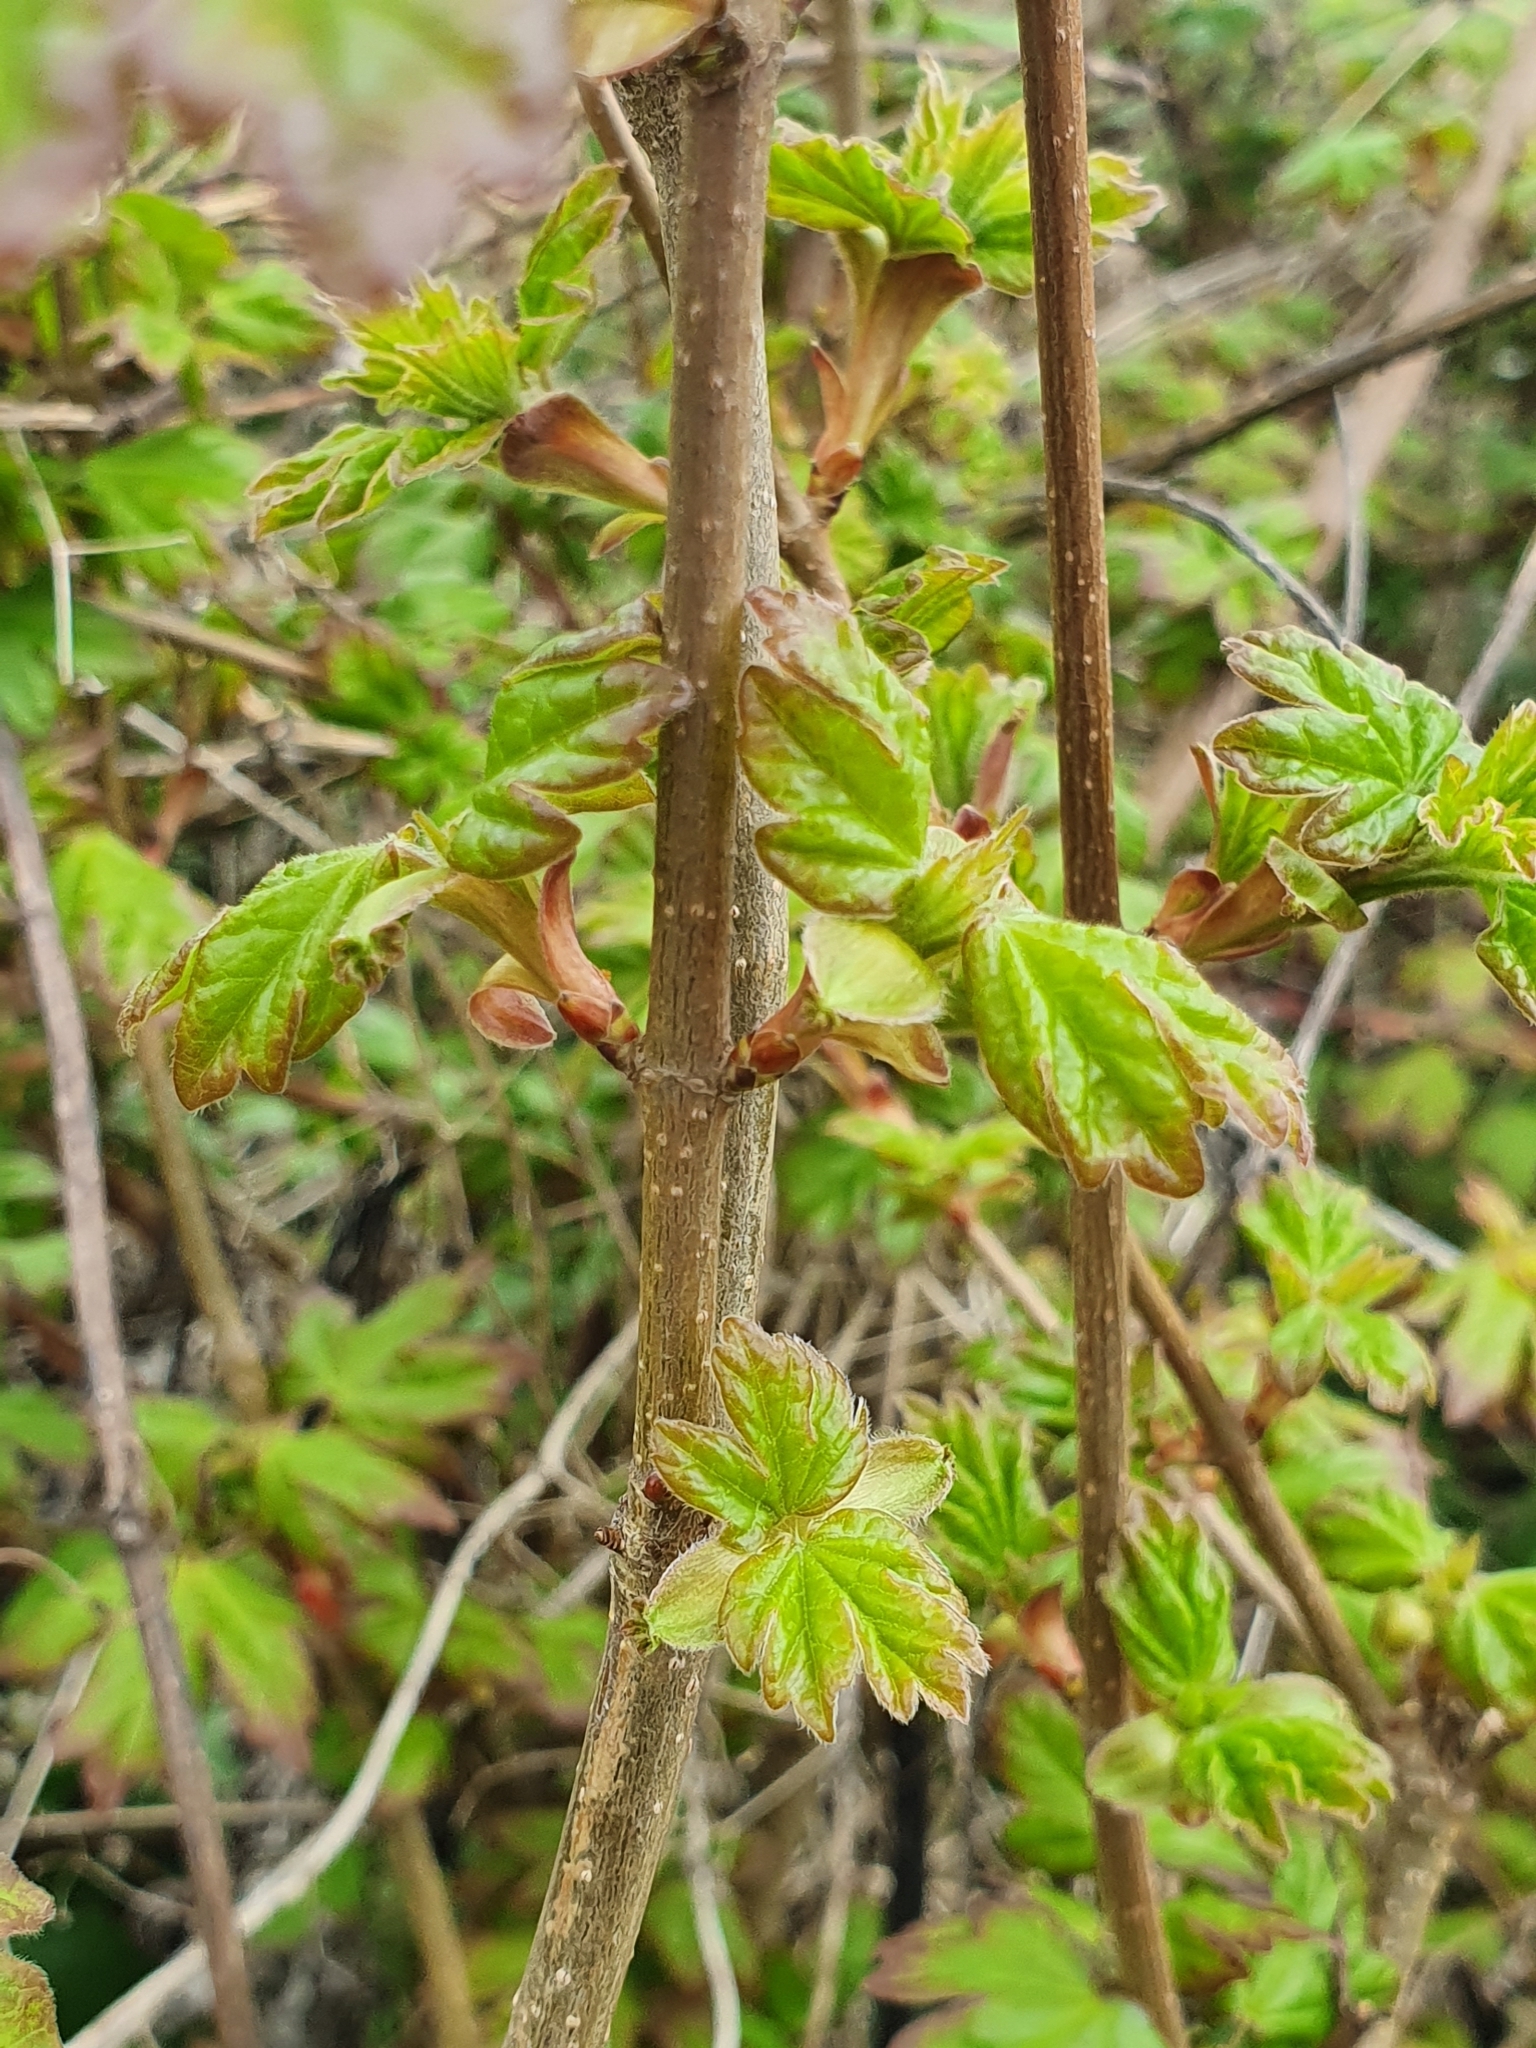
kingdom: Plantae
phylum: Tracheophyta
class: Magnoliopsida
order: Sapindales
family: Sapindaceae
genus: Acer
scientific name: Acer campestre
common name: Field maple
